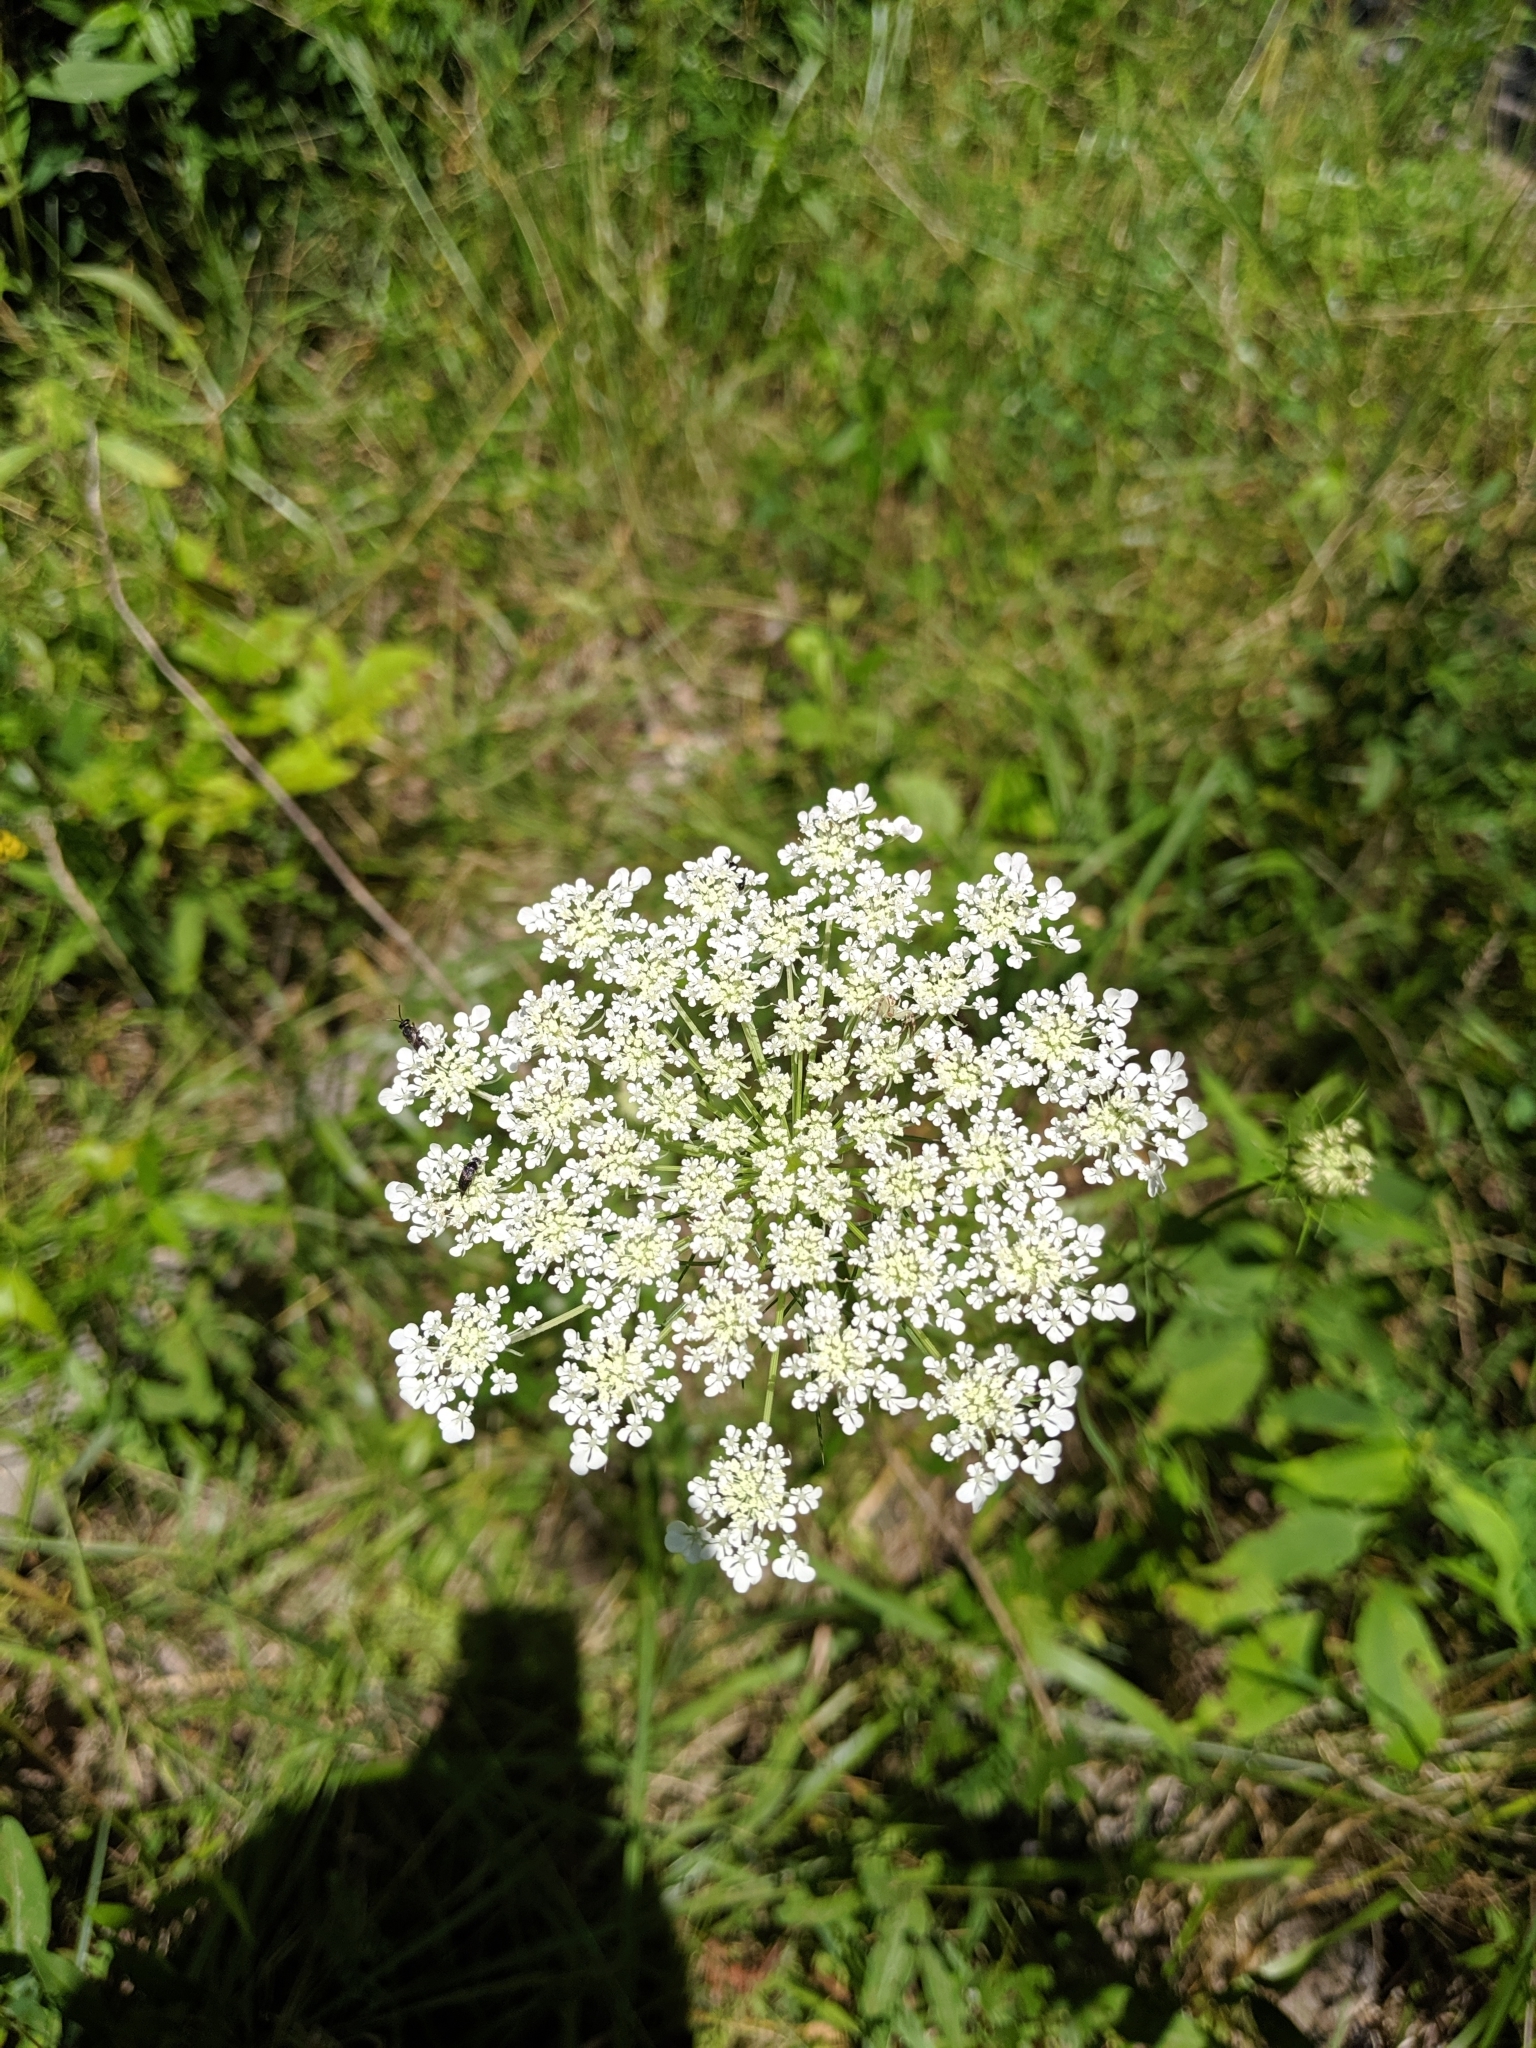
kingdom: Plantae
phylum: Tracheophyta
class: Magnoliopsida
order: Apiales
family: Apiaceae
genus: Daucus
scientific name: Daucus carota
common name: Wild carrot
